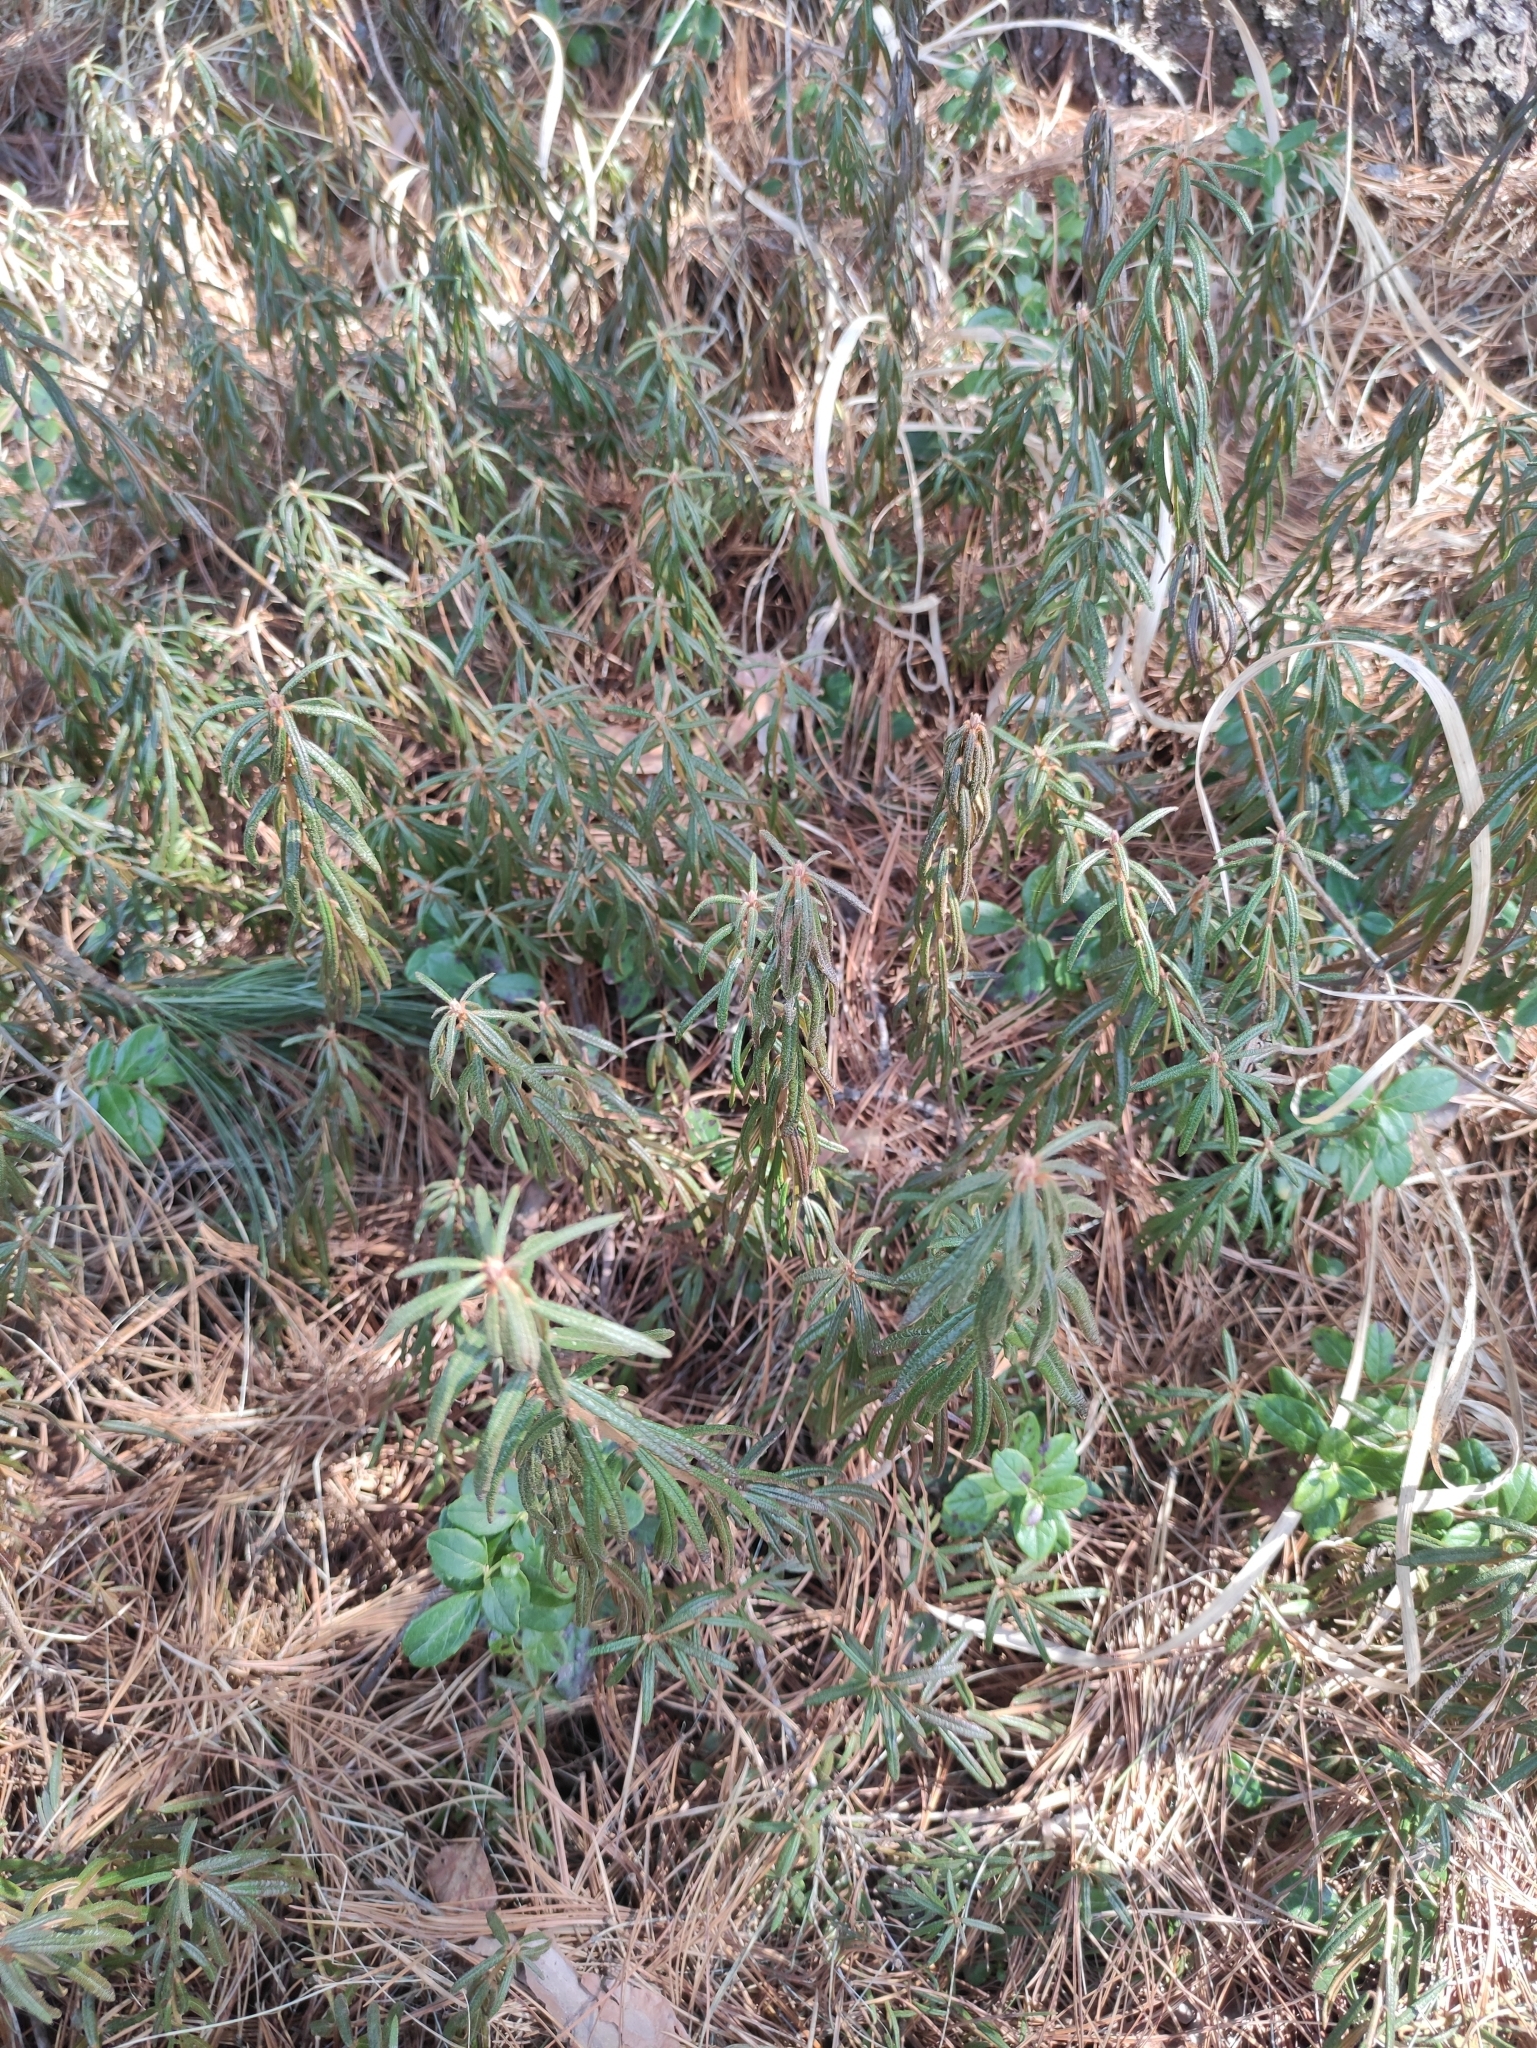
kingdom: Plantae
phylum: Tracheophyta
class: Magnoliopsida
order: Ericales
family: Ericaceae
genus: Rhododendron
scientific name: Rhododendron tomentosum
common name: Marsh labrador tea
